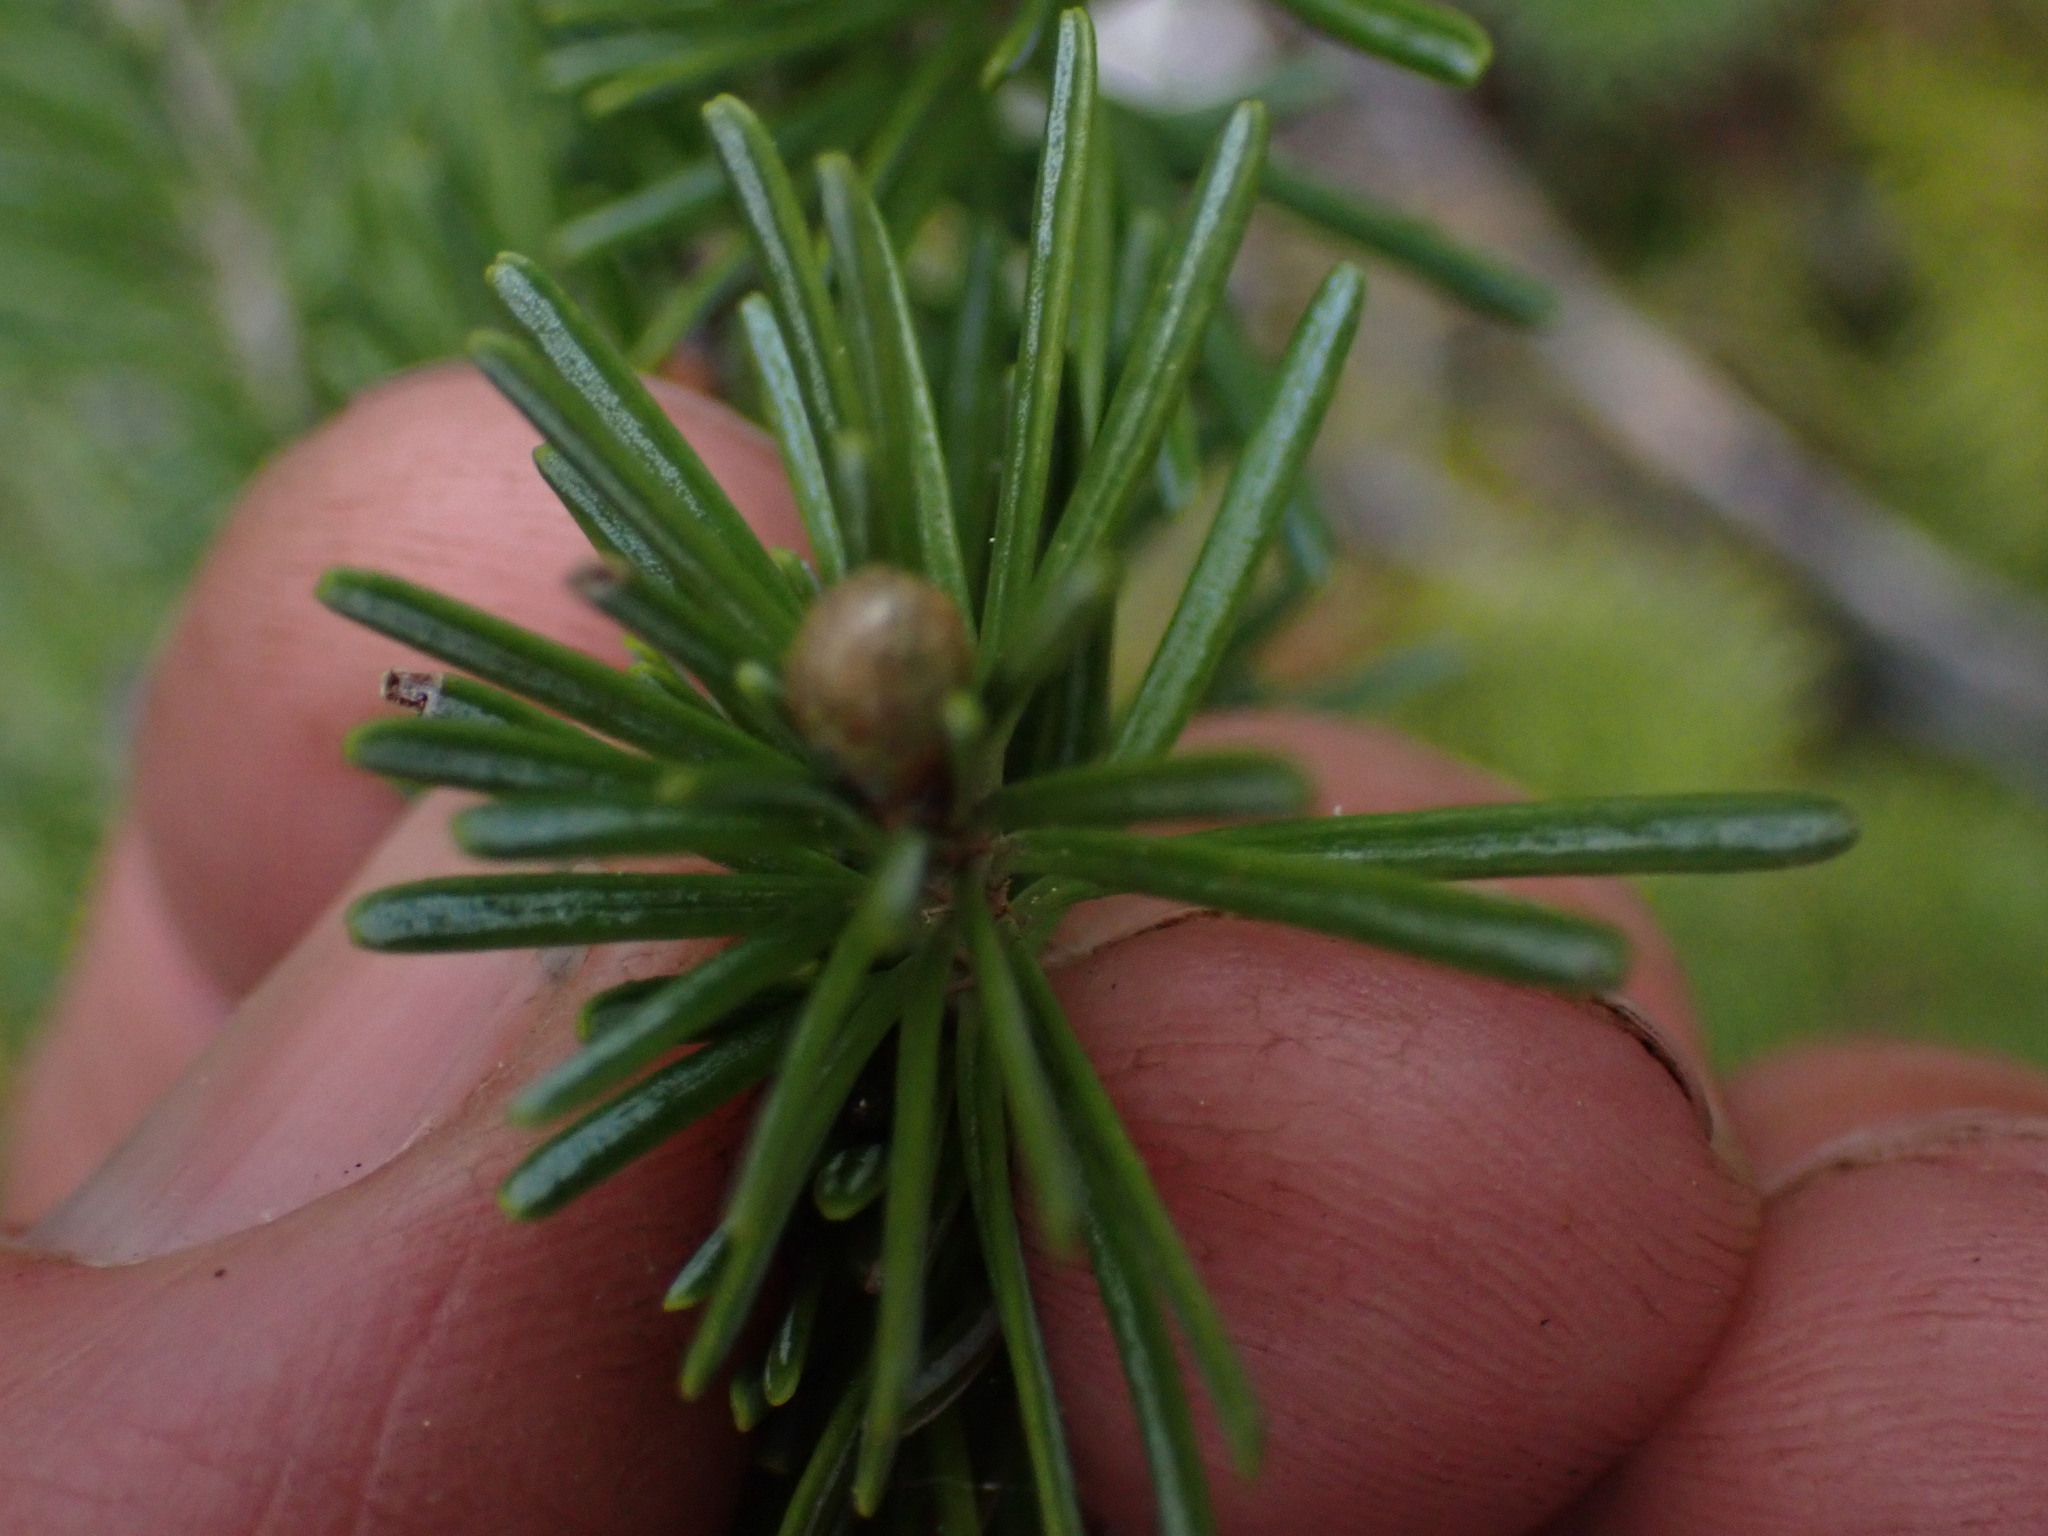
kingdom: Plantae
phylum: Tracheophyta
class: Pinopsida
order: Pinales
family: Pinaceae
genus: Abies
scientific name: Abies lasiocarpa
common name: Subalpine fir
